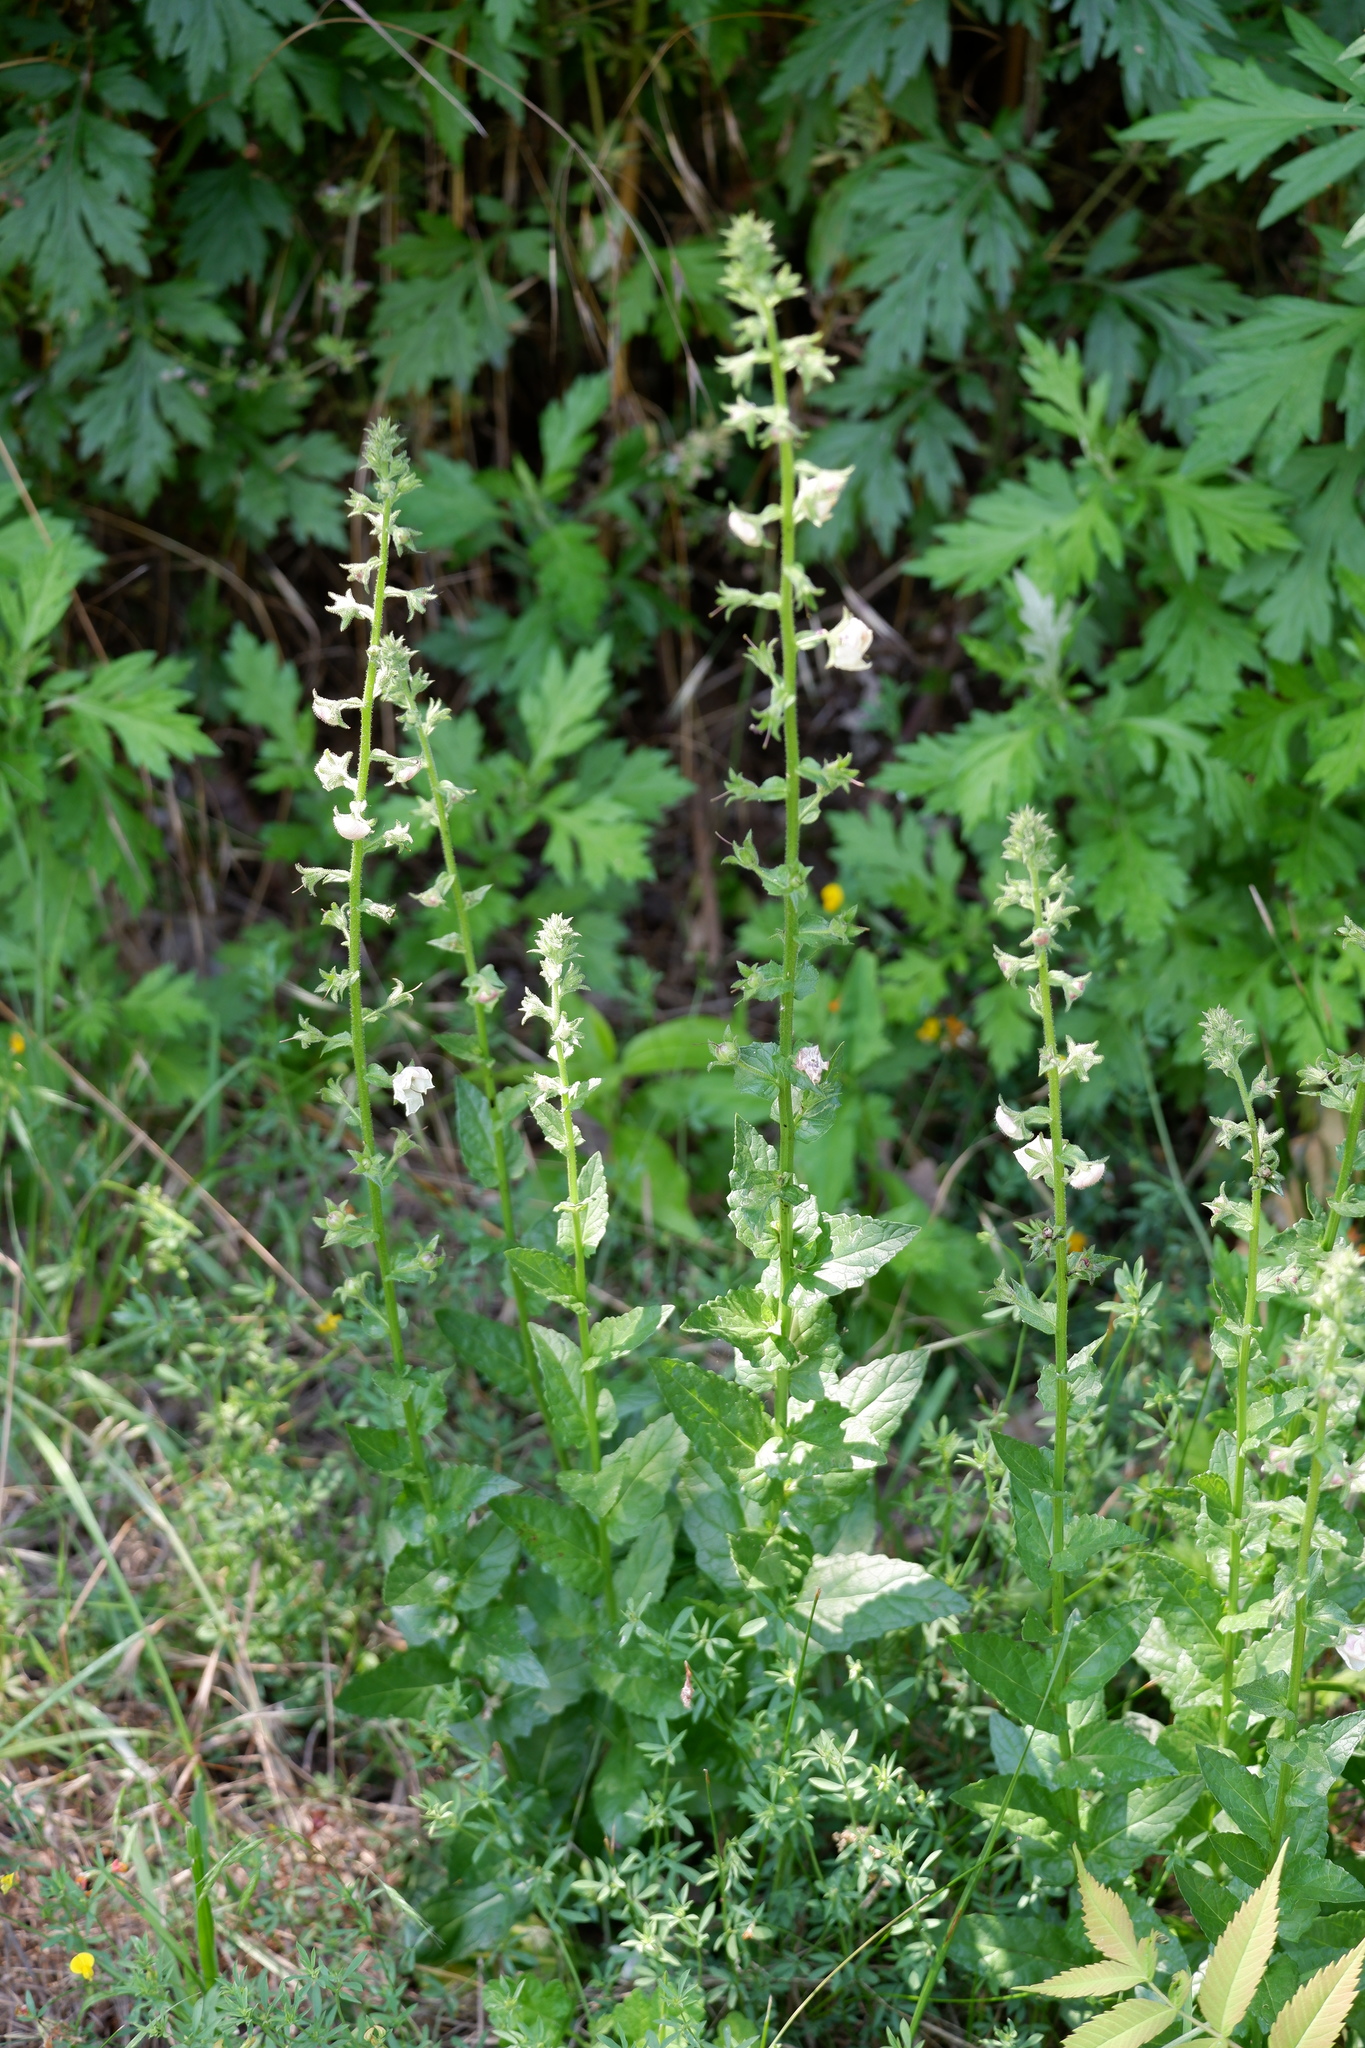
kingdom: Plantae
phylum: Tracheophyta
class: Magnoliopsida
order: Lamiales
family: Scrophulariaceae
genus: Verbascum
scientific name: Verbascum blattaria
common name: Moth mullein
